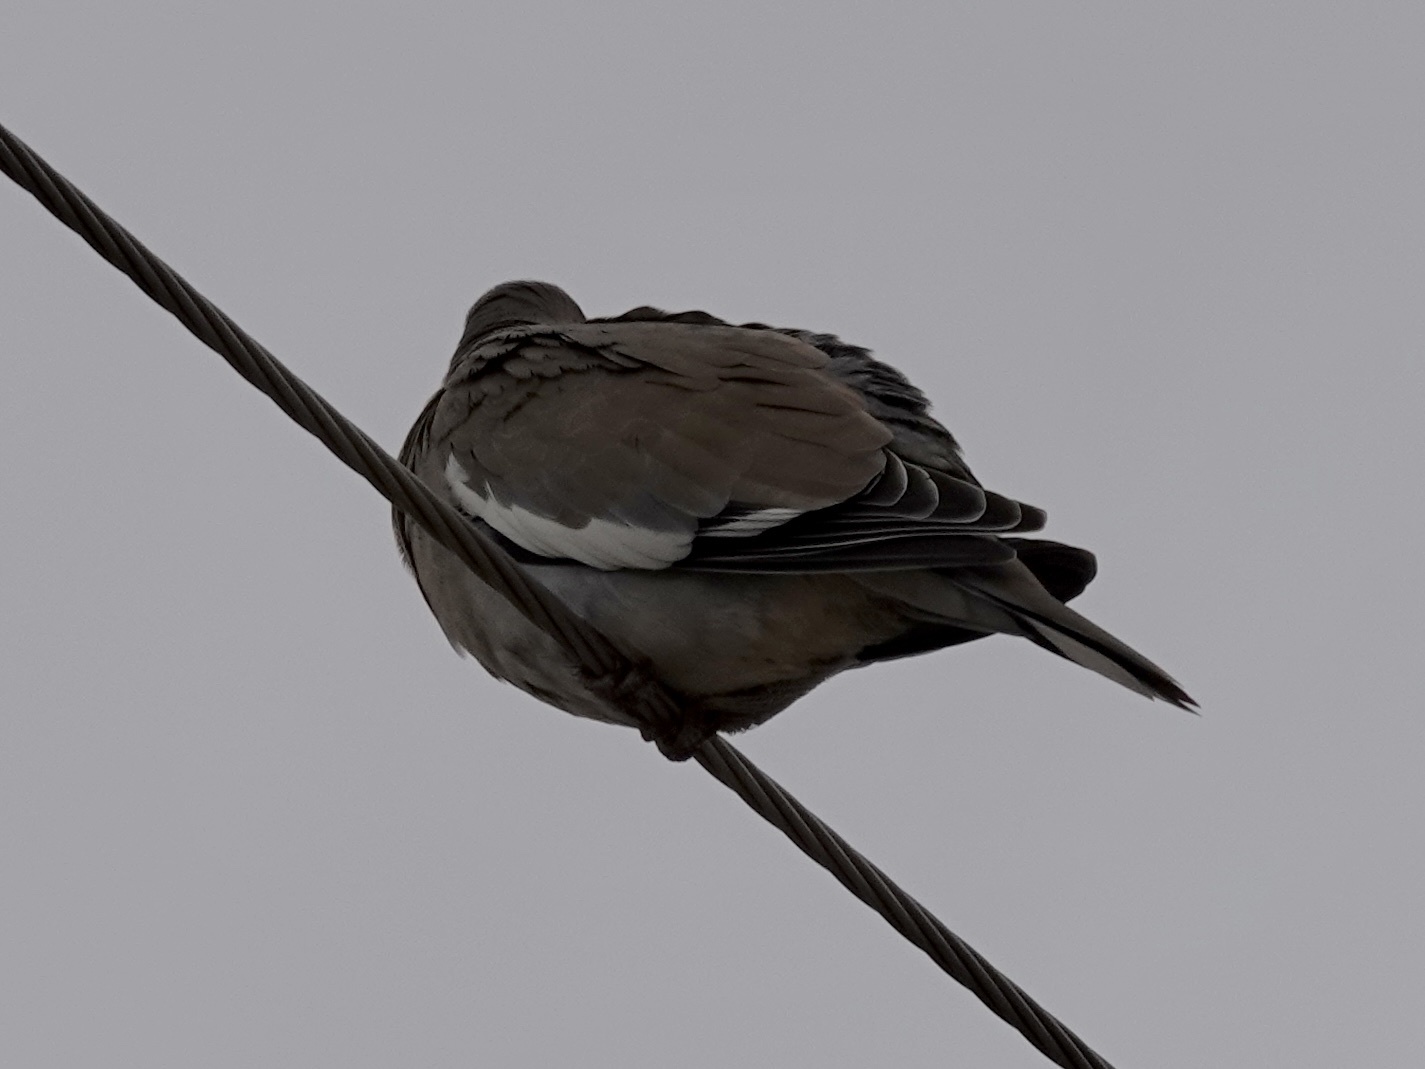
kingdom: Animalia
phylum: Chordata
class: Aves
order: Columbiformes
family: Columbidae
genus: Zenaida
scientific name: Zenaida asiatica
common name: White-winged dove
